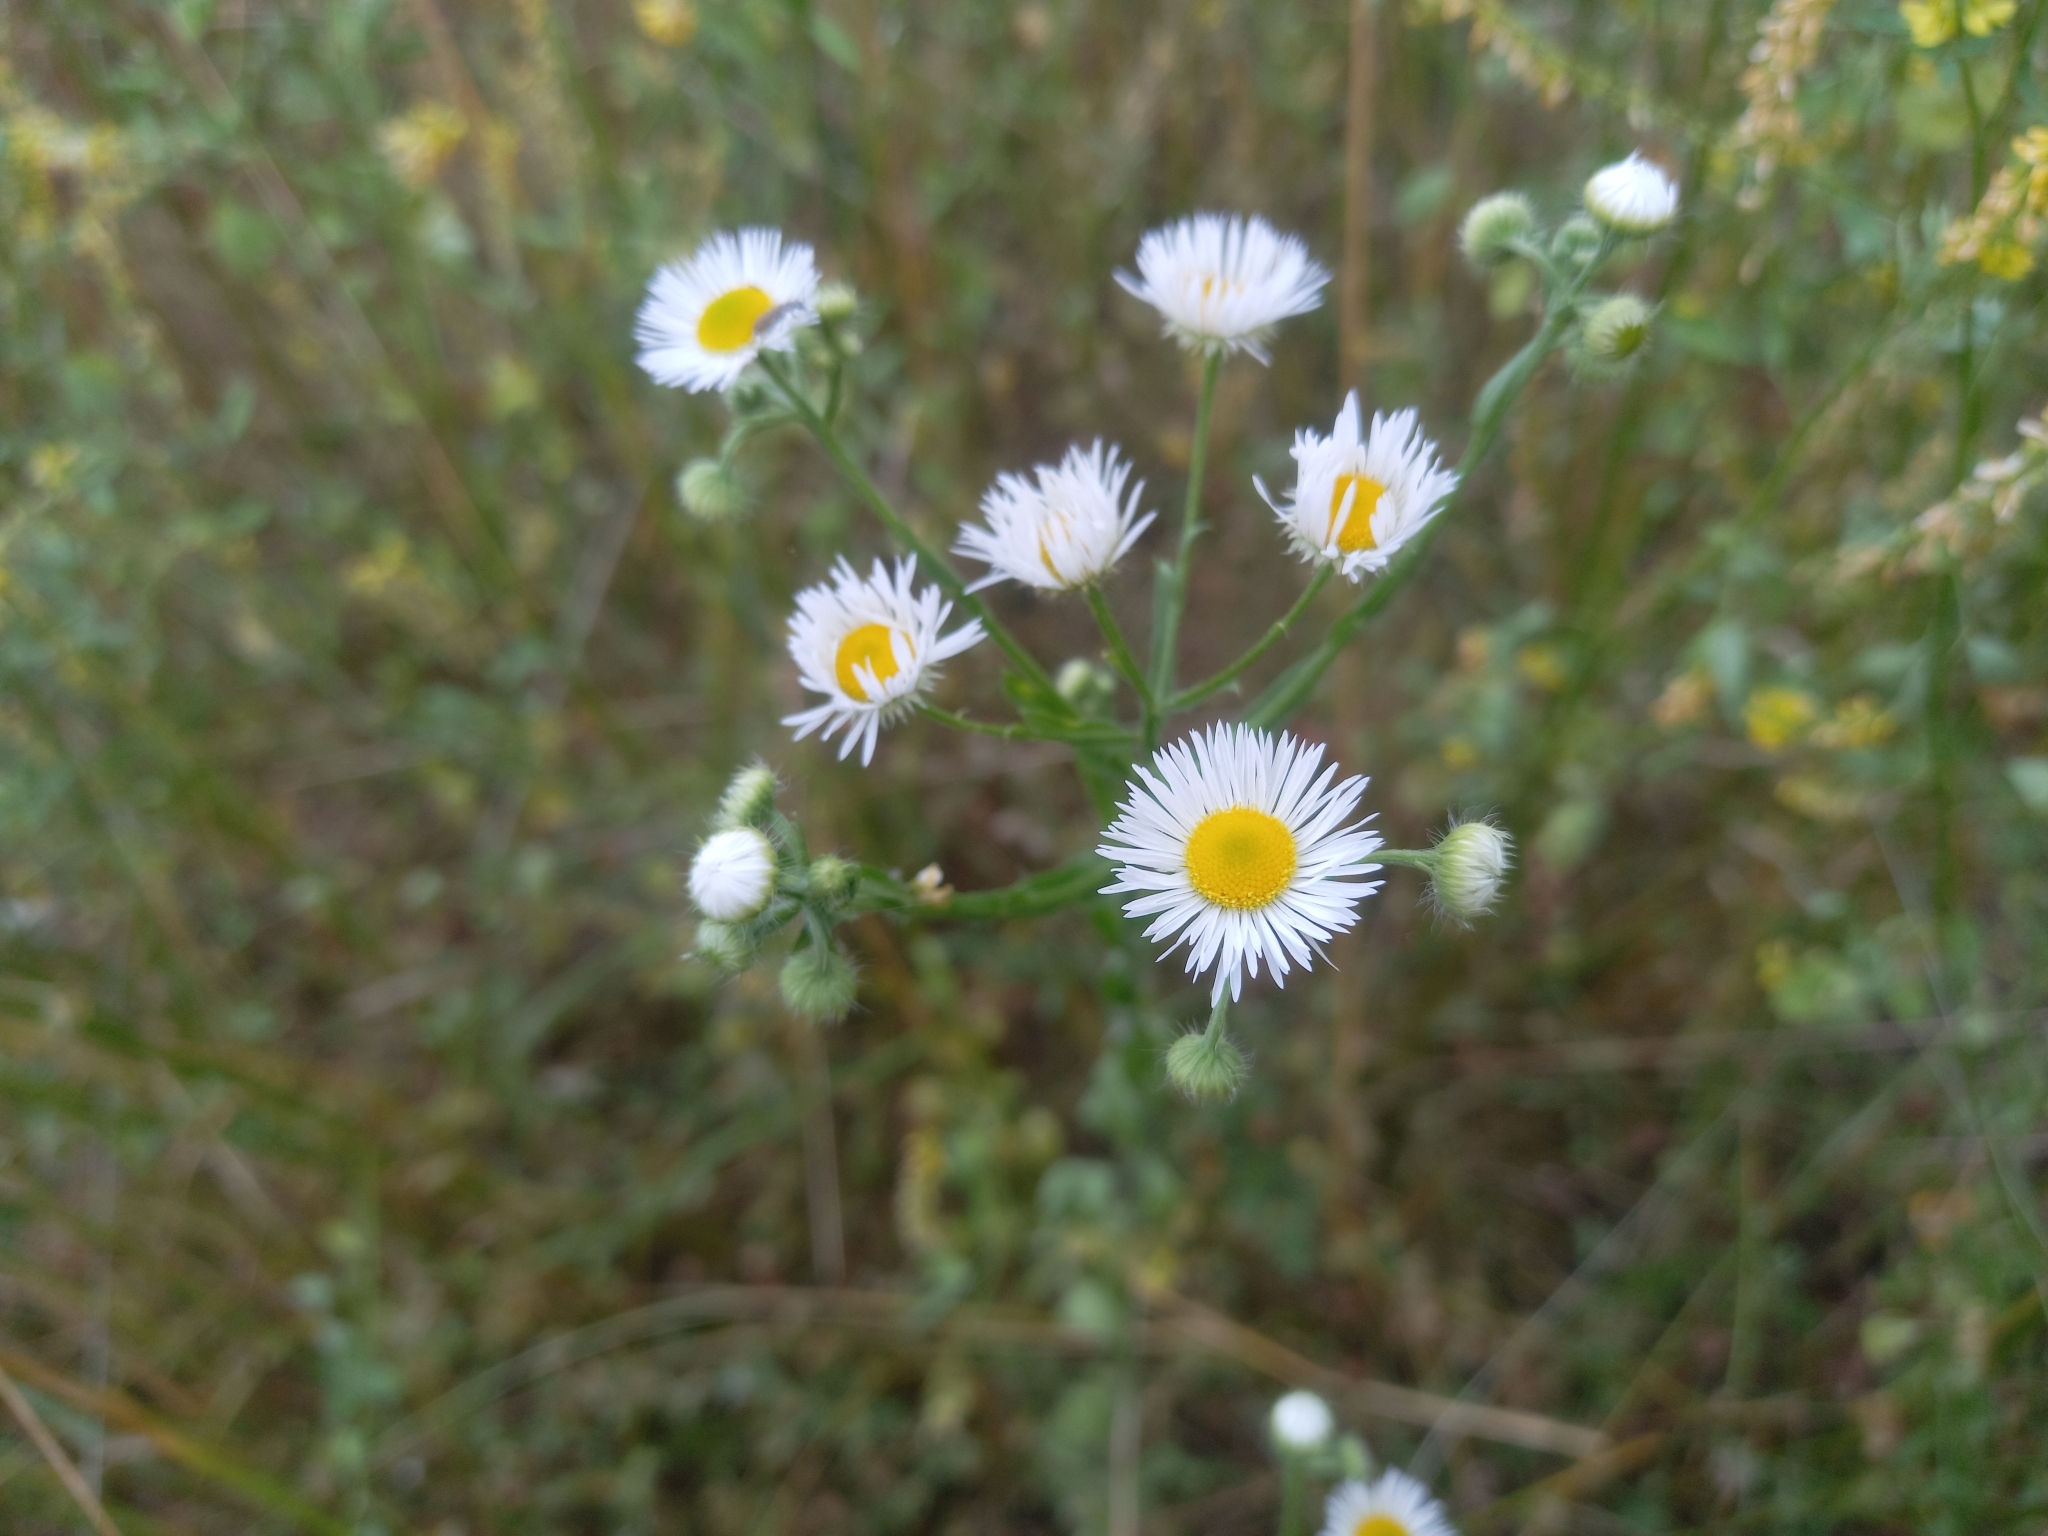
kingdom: Plantae
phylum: Tracheophyta
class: Magnoliopsida
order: Asterales
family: Asteraceae
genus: Erigeron
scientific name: Erigeron annuus
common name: Tall fleabane
